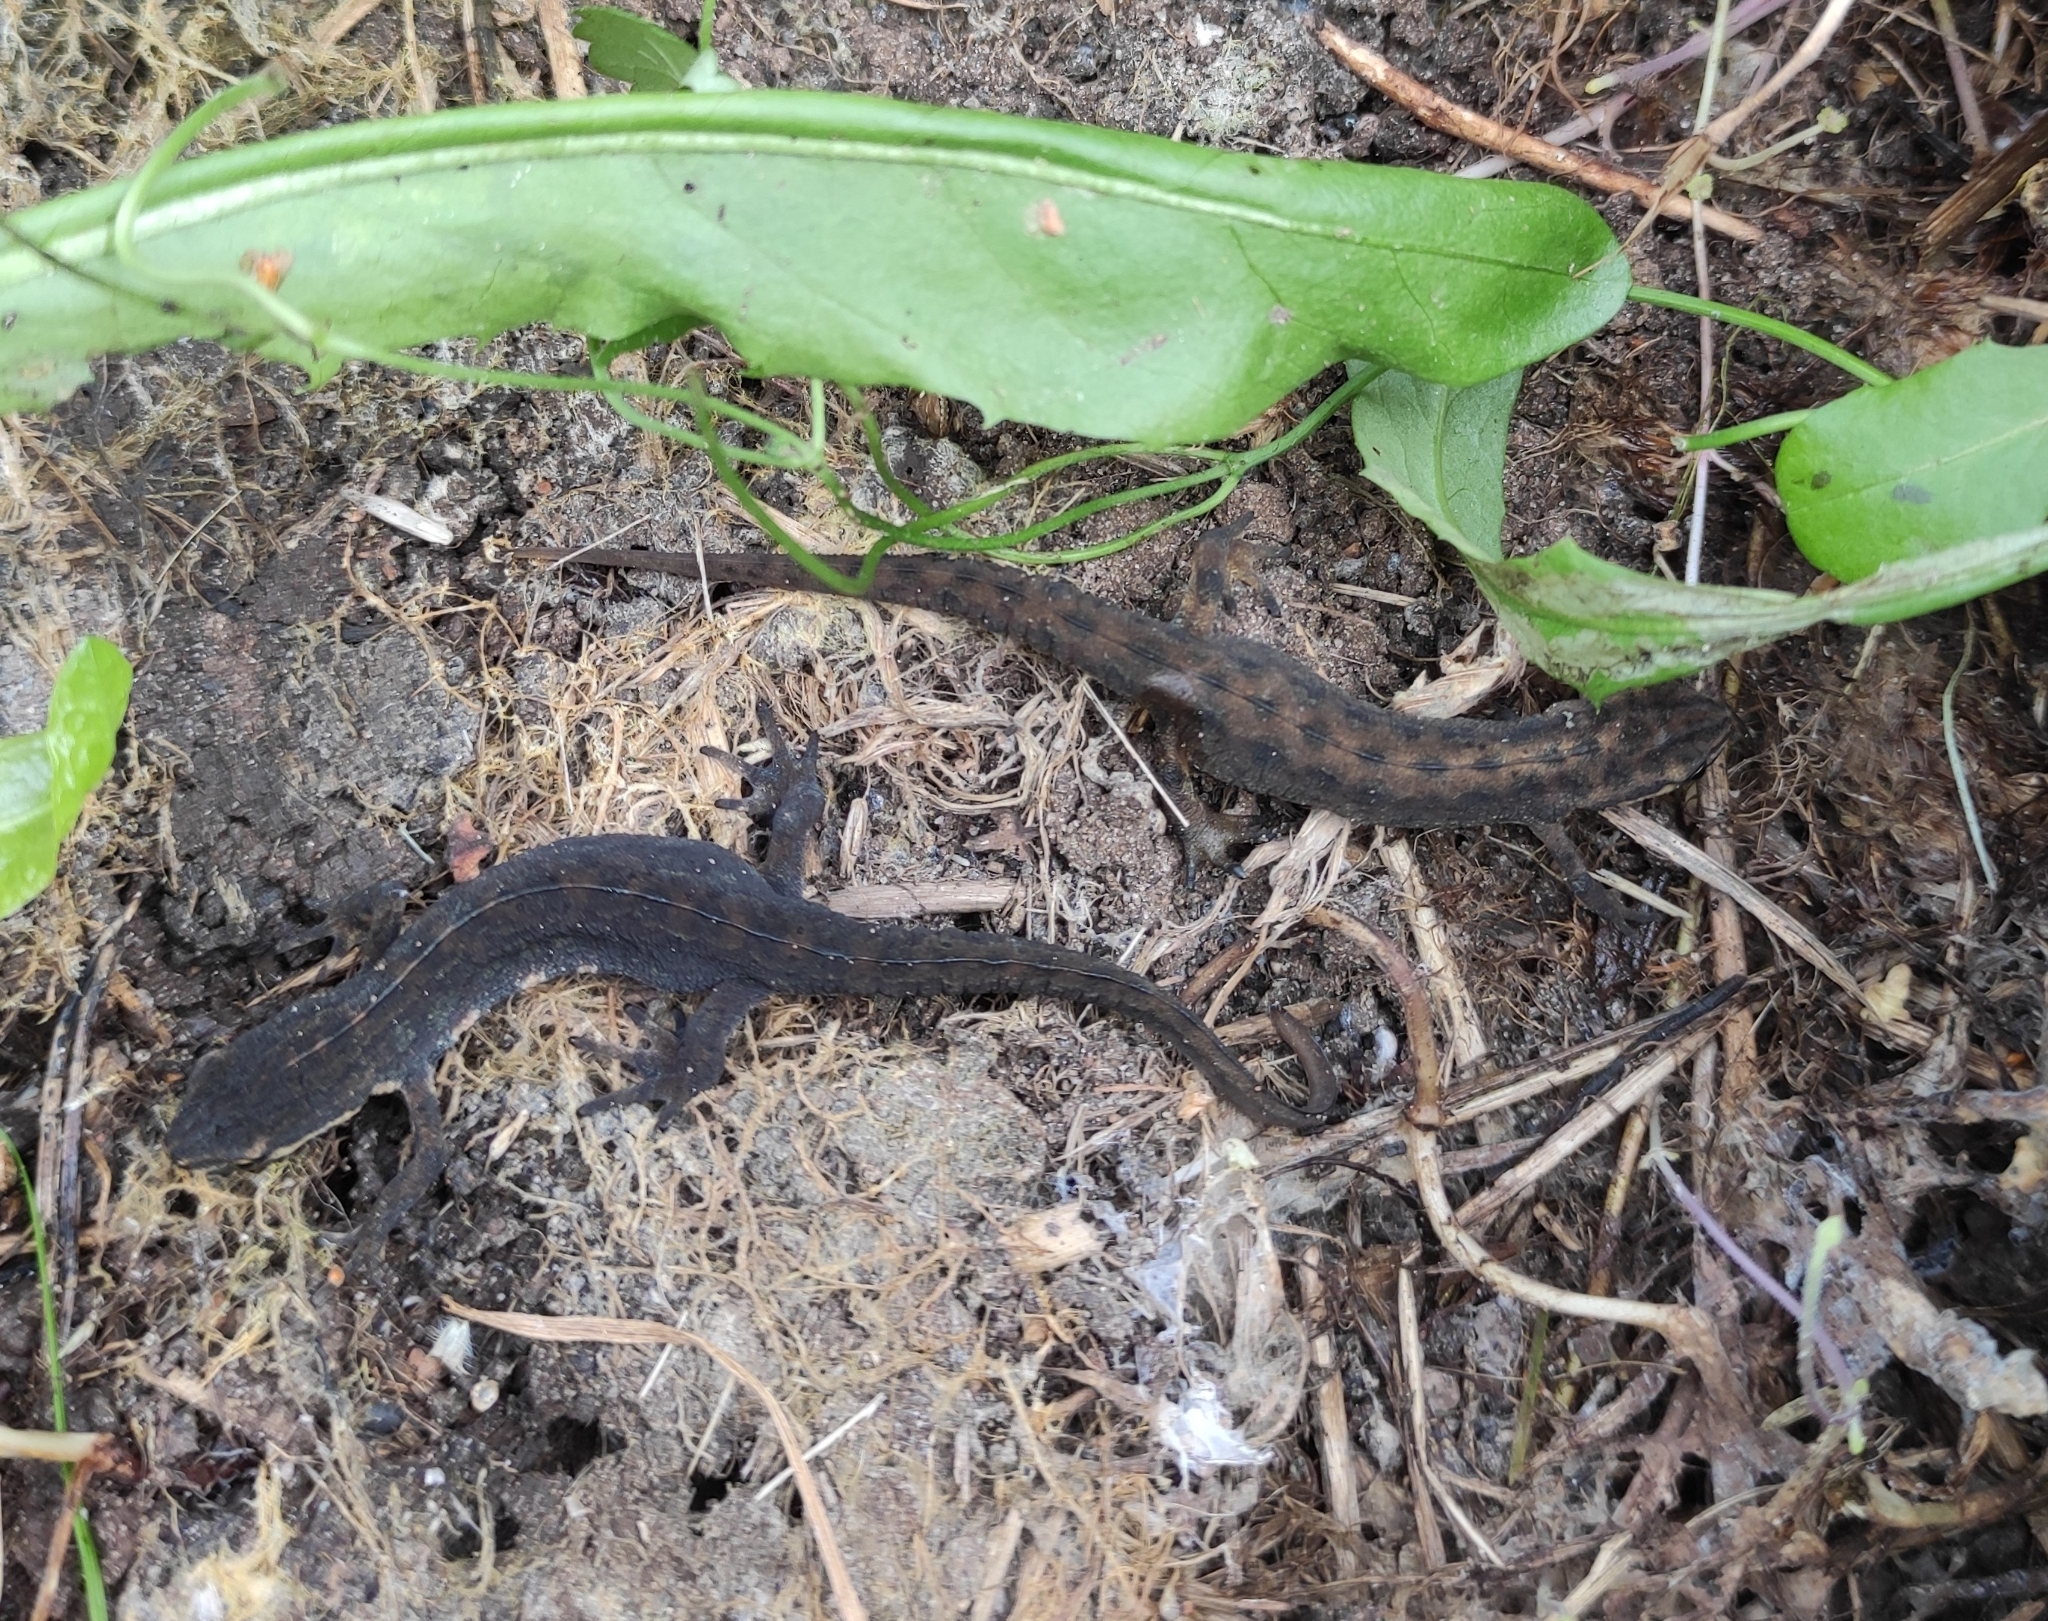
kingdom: Animalia
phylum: Chordata
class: Amphibia
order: Caudata
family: Salamandridae
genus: Lissotriton
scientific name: Lissotriton vulgaris
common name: Smooth newt
